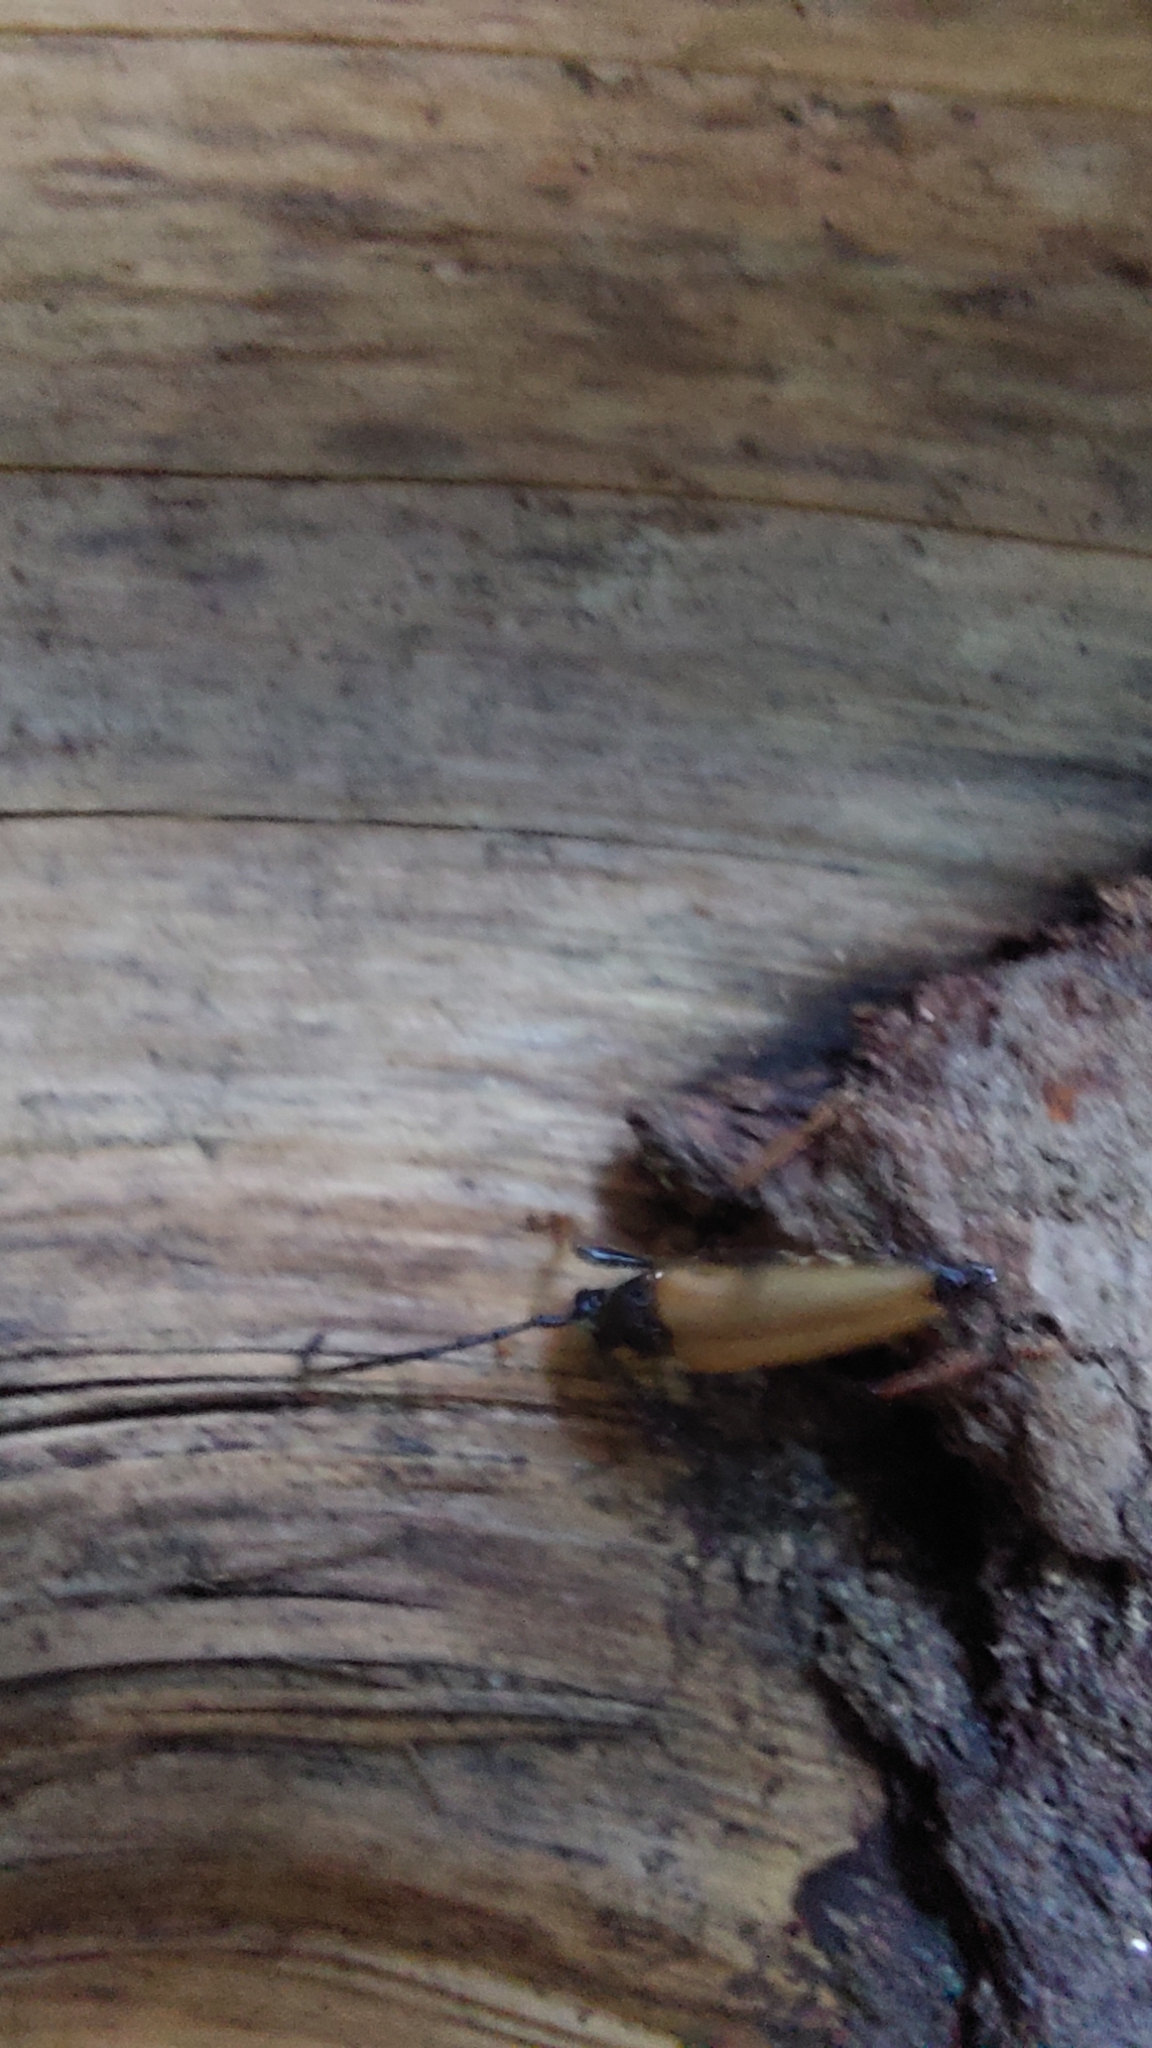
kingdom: Animalia
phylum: Arthropoda
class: Insecta
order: Coleoptera
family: Cerambycidae
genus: Stictoleptura
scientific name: Stictoleptura rubra
